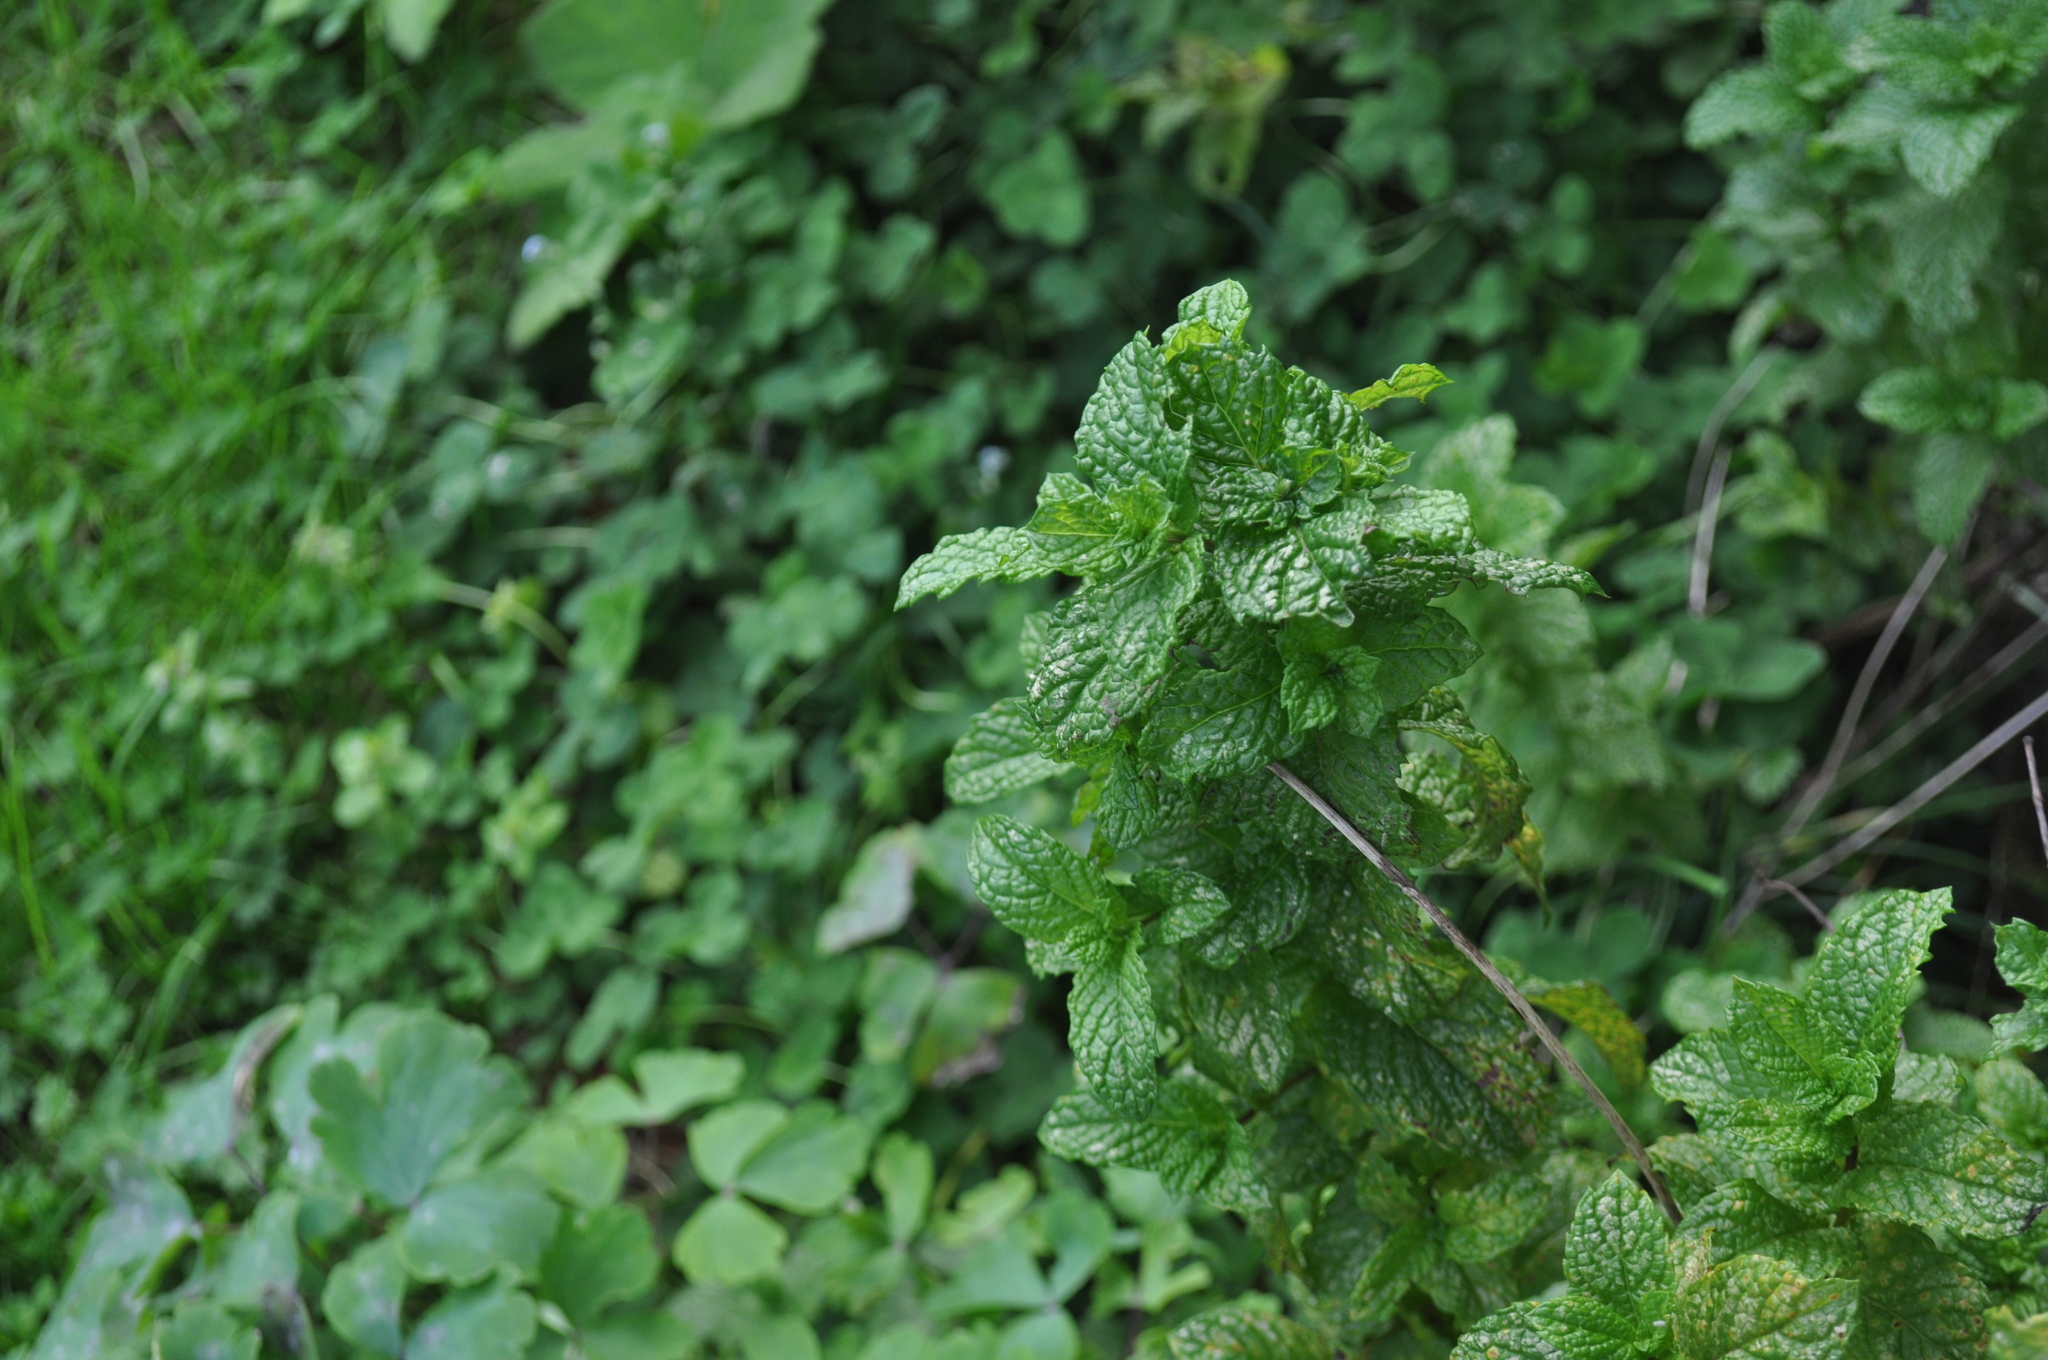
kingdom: Plantae
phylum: Tracheophyta
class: Magnoliopsida
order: Lamiales
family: Lamiaceae
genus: Mentha
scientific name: Mentha spicata
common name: Spearmint
